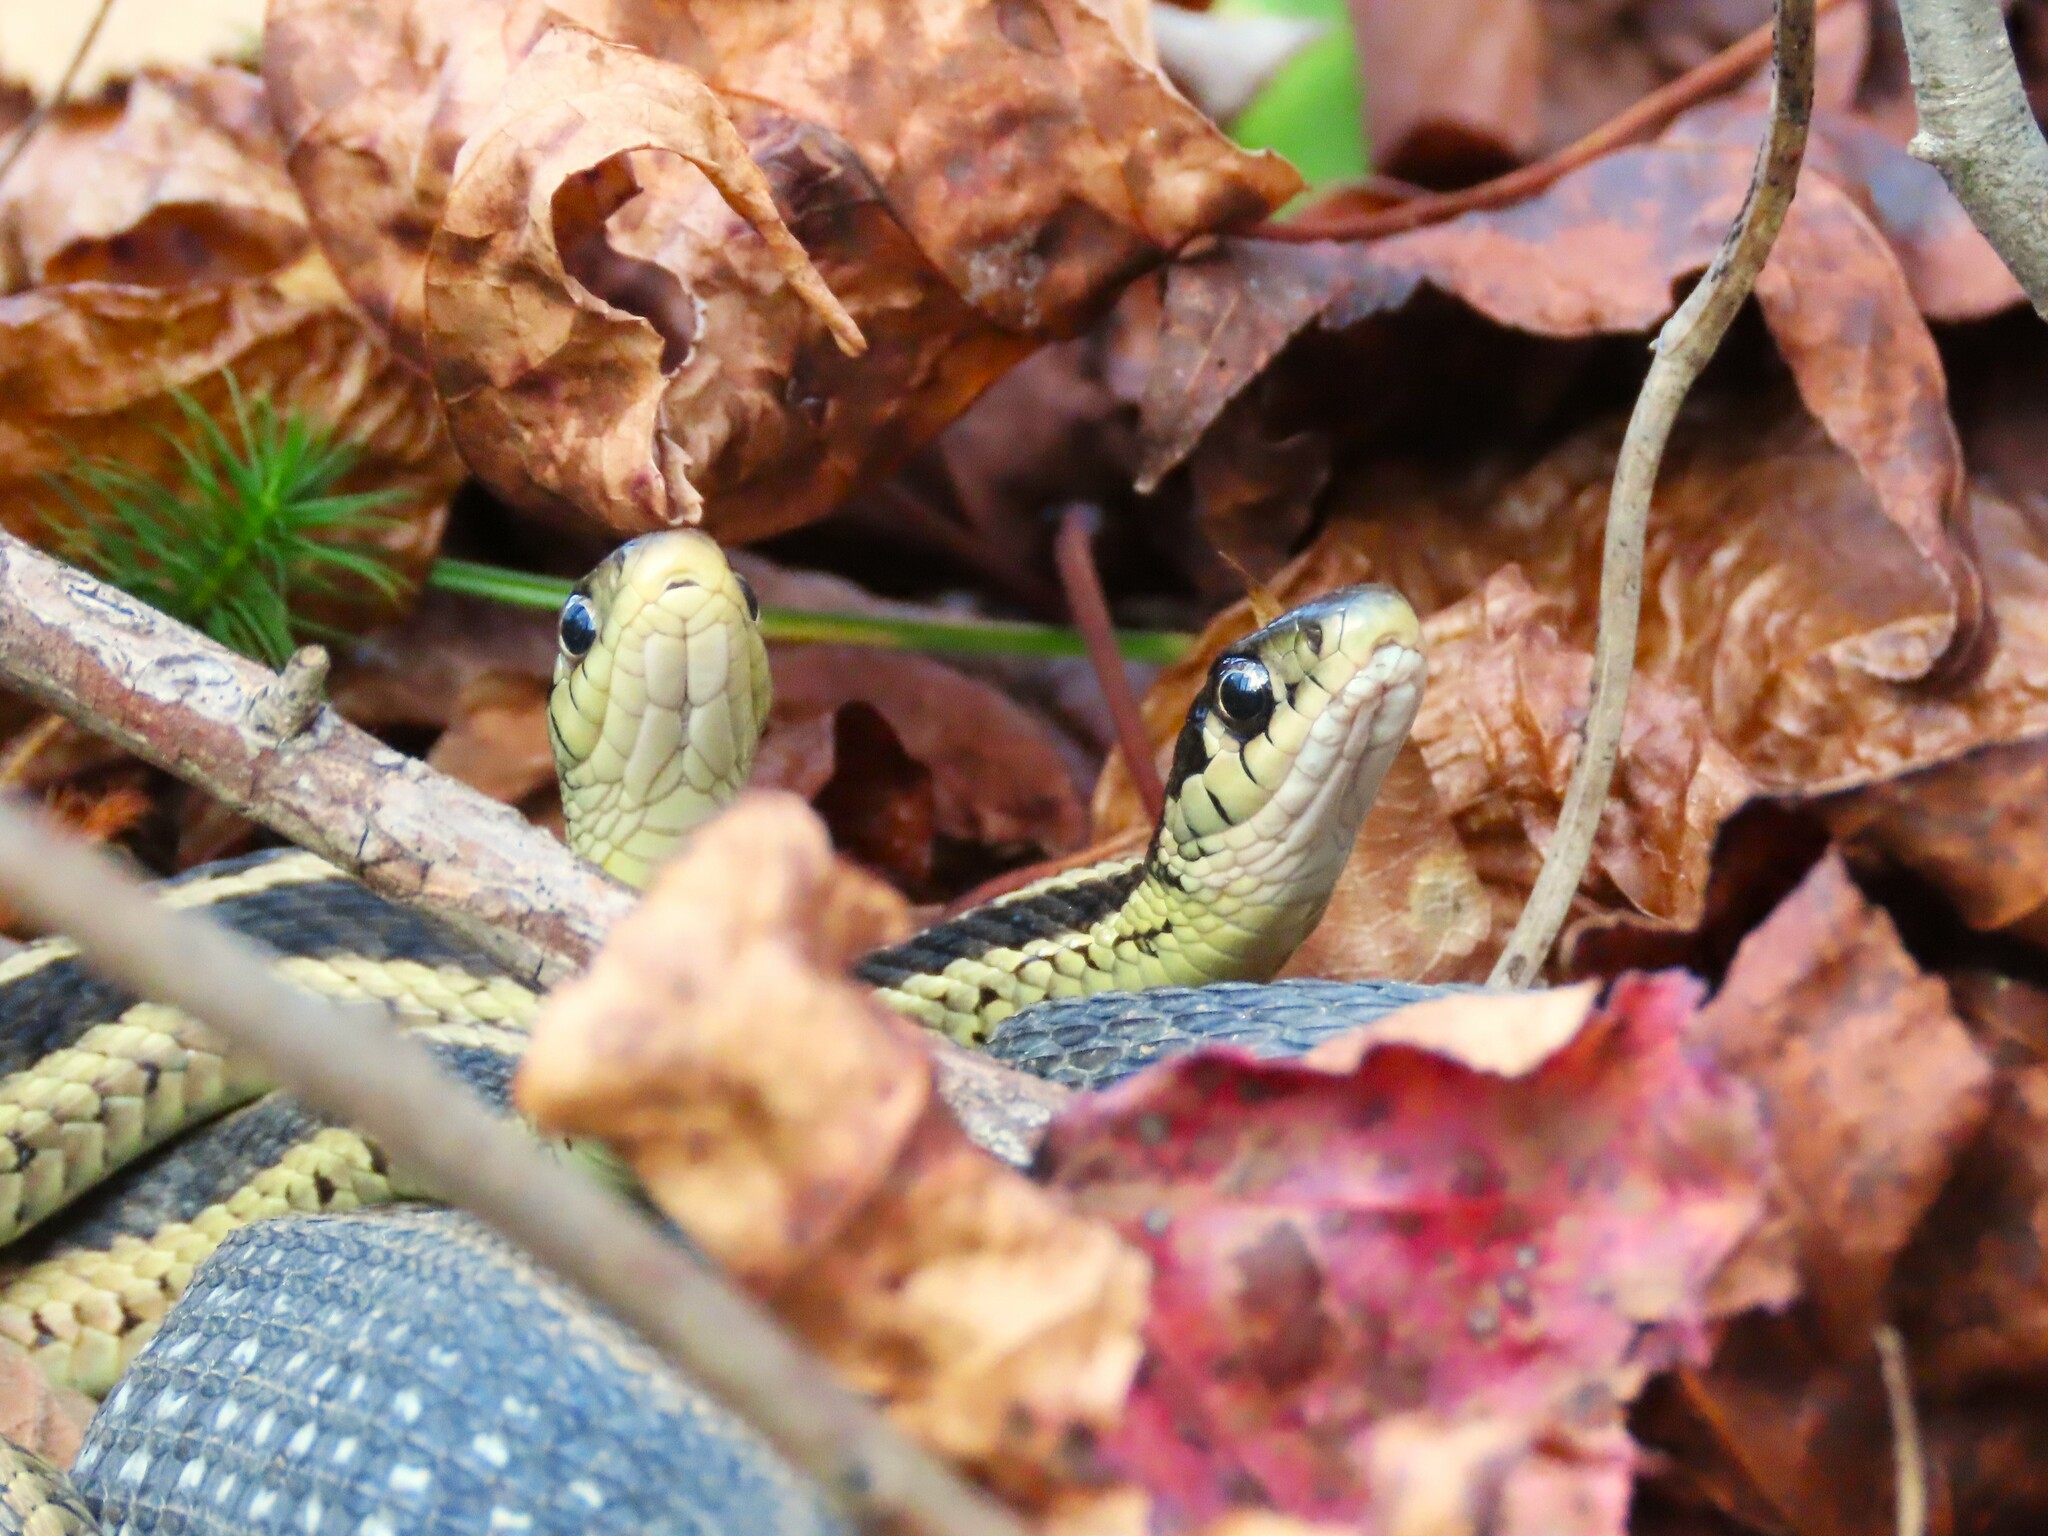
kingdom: Animalia
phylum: Chordata
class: Squamata
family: Colubridae
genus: Thamnophis
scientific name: Thamnophis sirtalis
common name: Common garter snake
